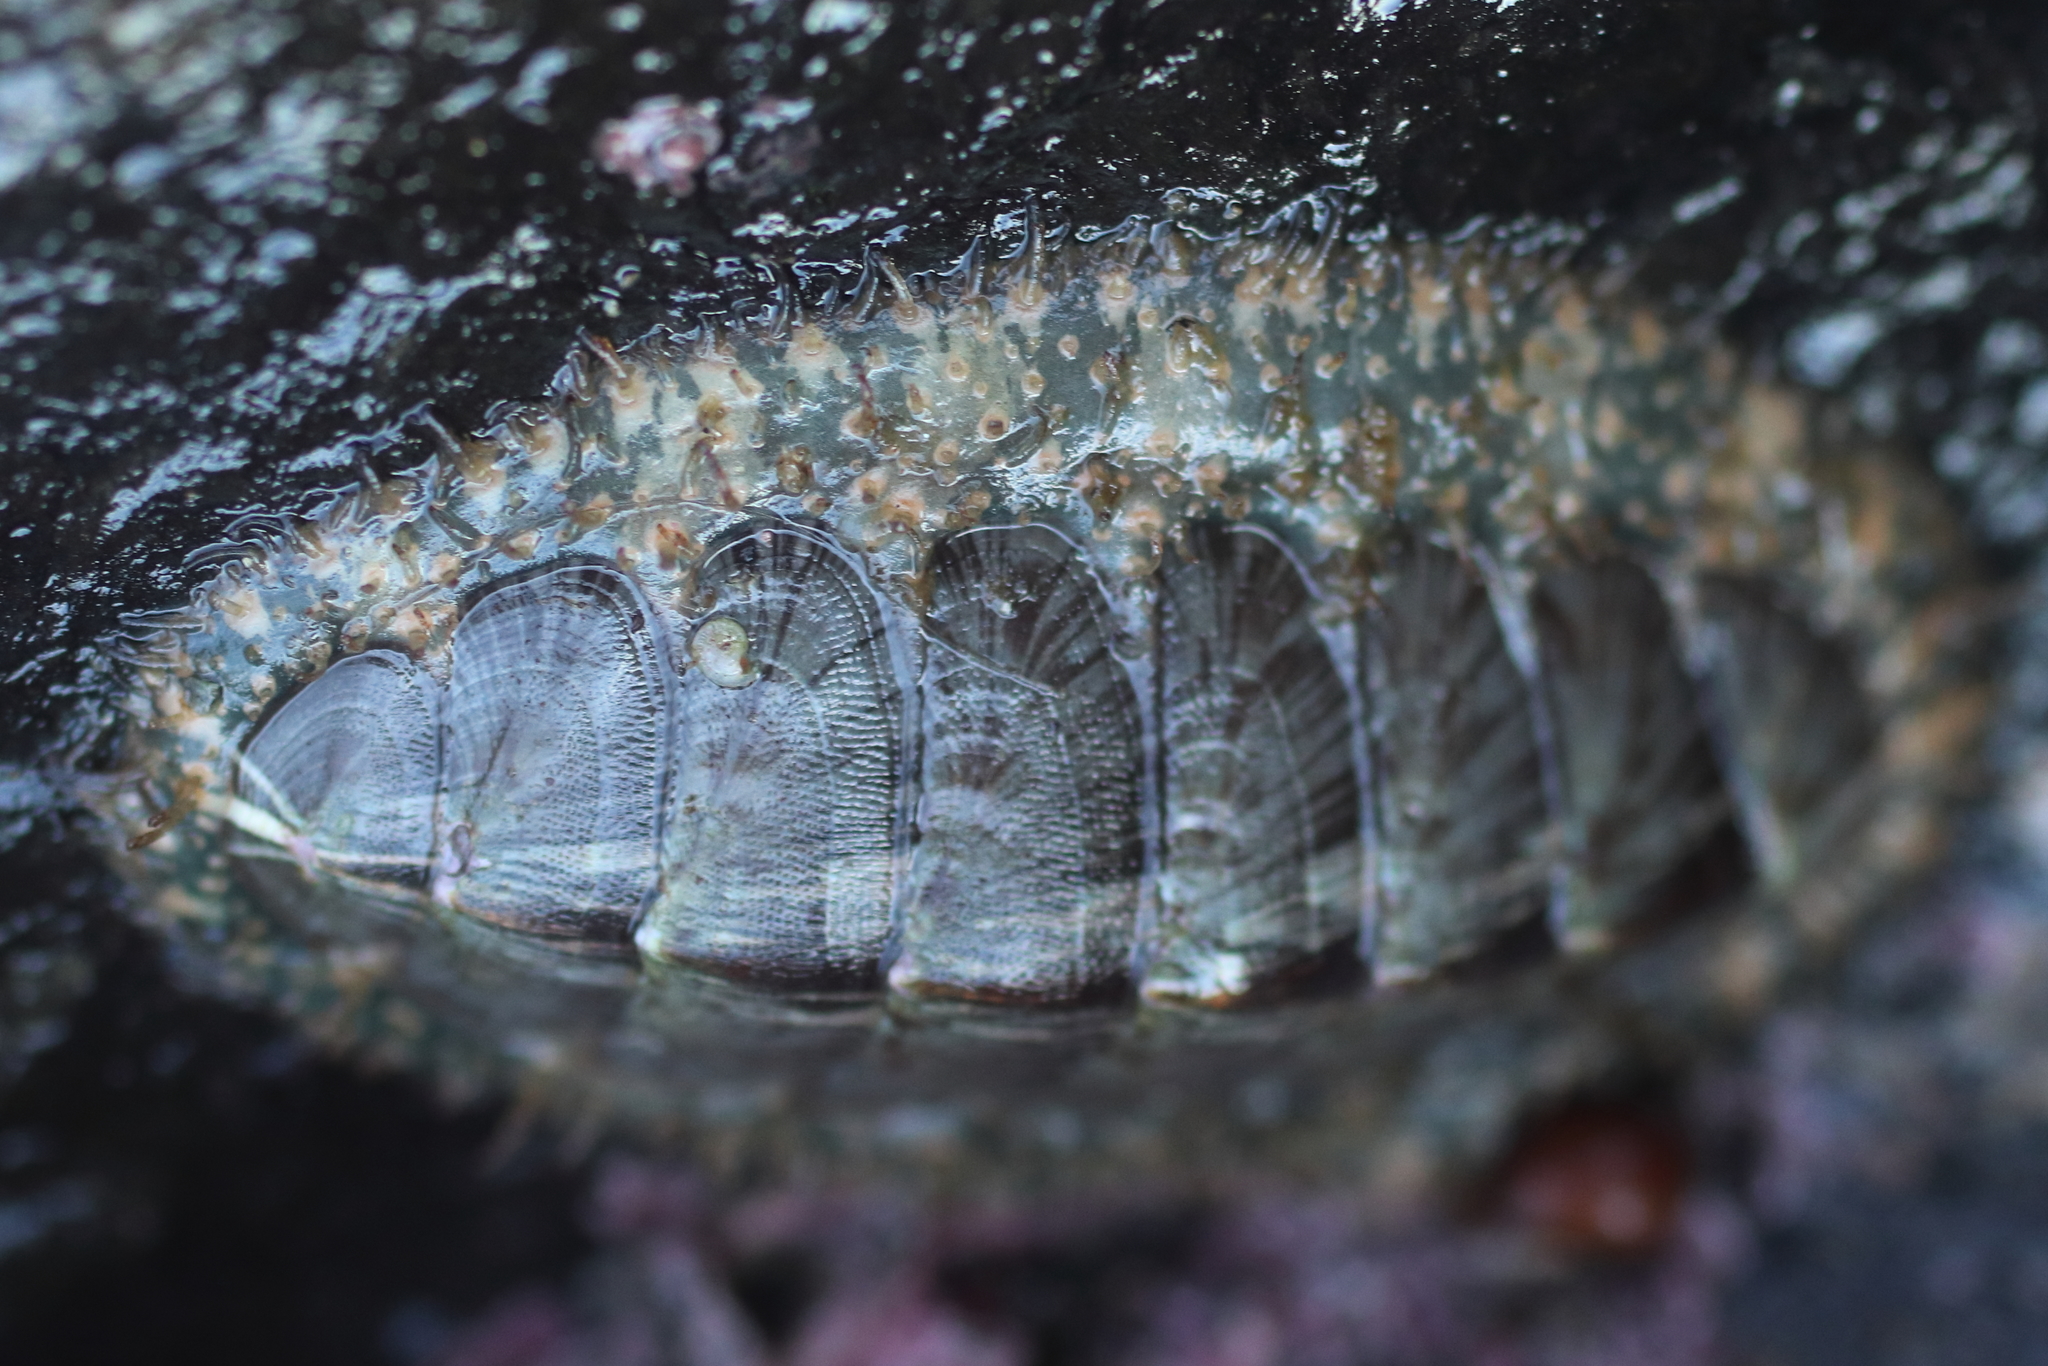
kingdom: Animalia
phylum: Mollusca
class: Polyplacophora
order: Chitonida
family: Mopaliidae
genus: Mopalia
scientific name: Mopalia lignosa
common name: Woody chiton
